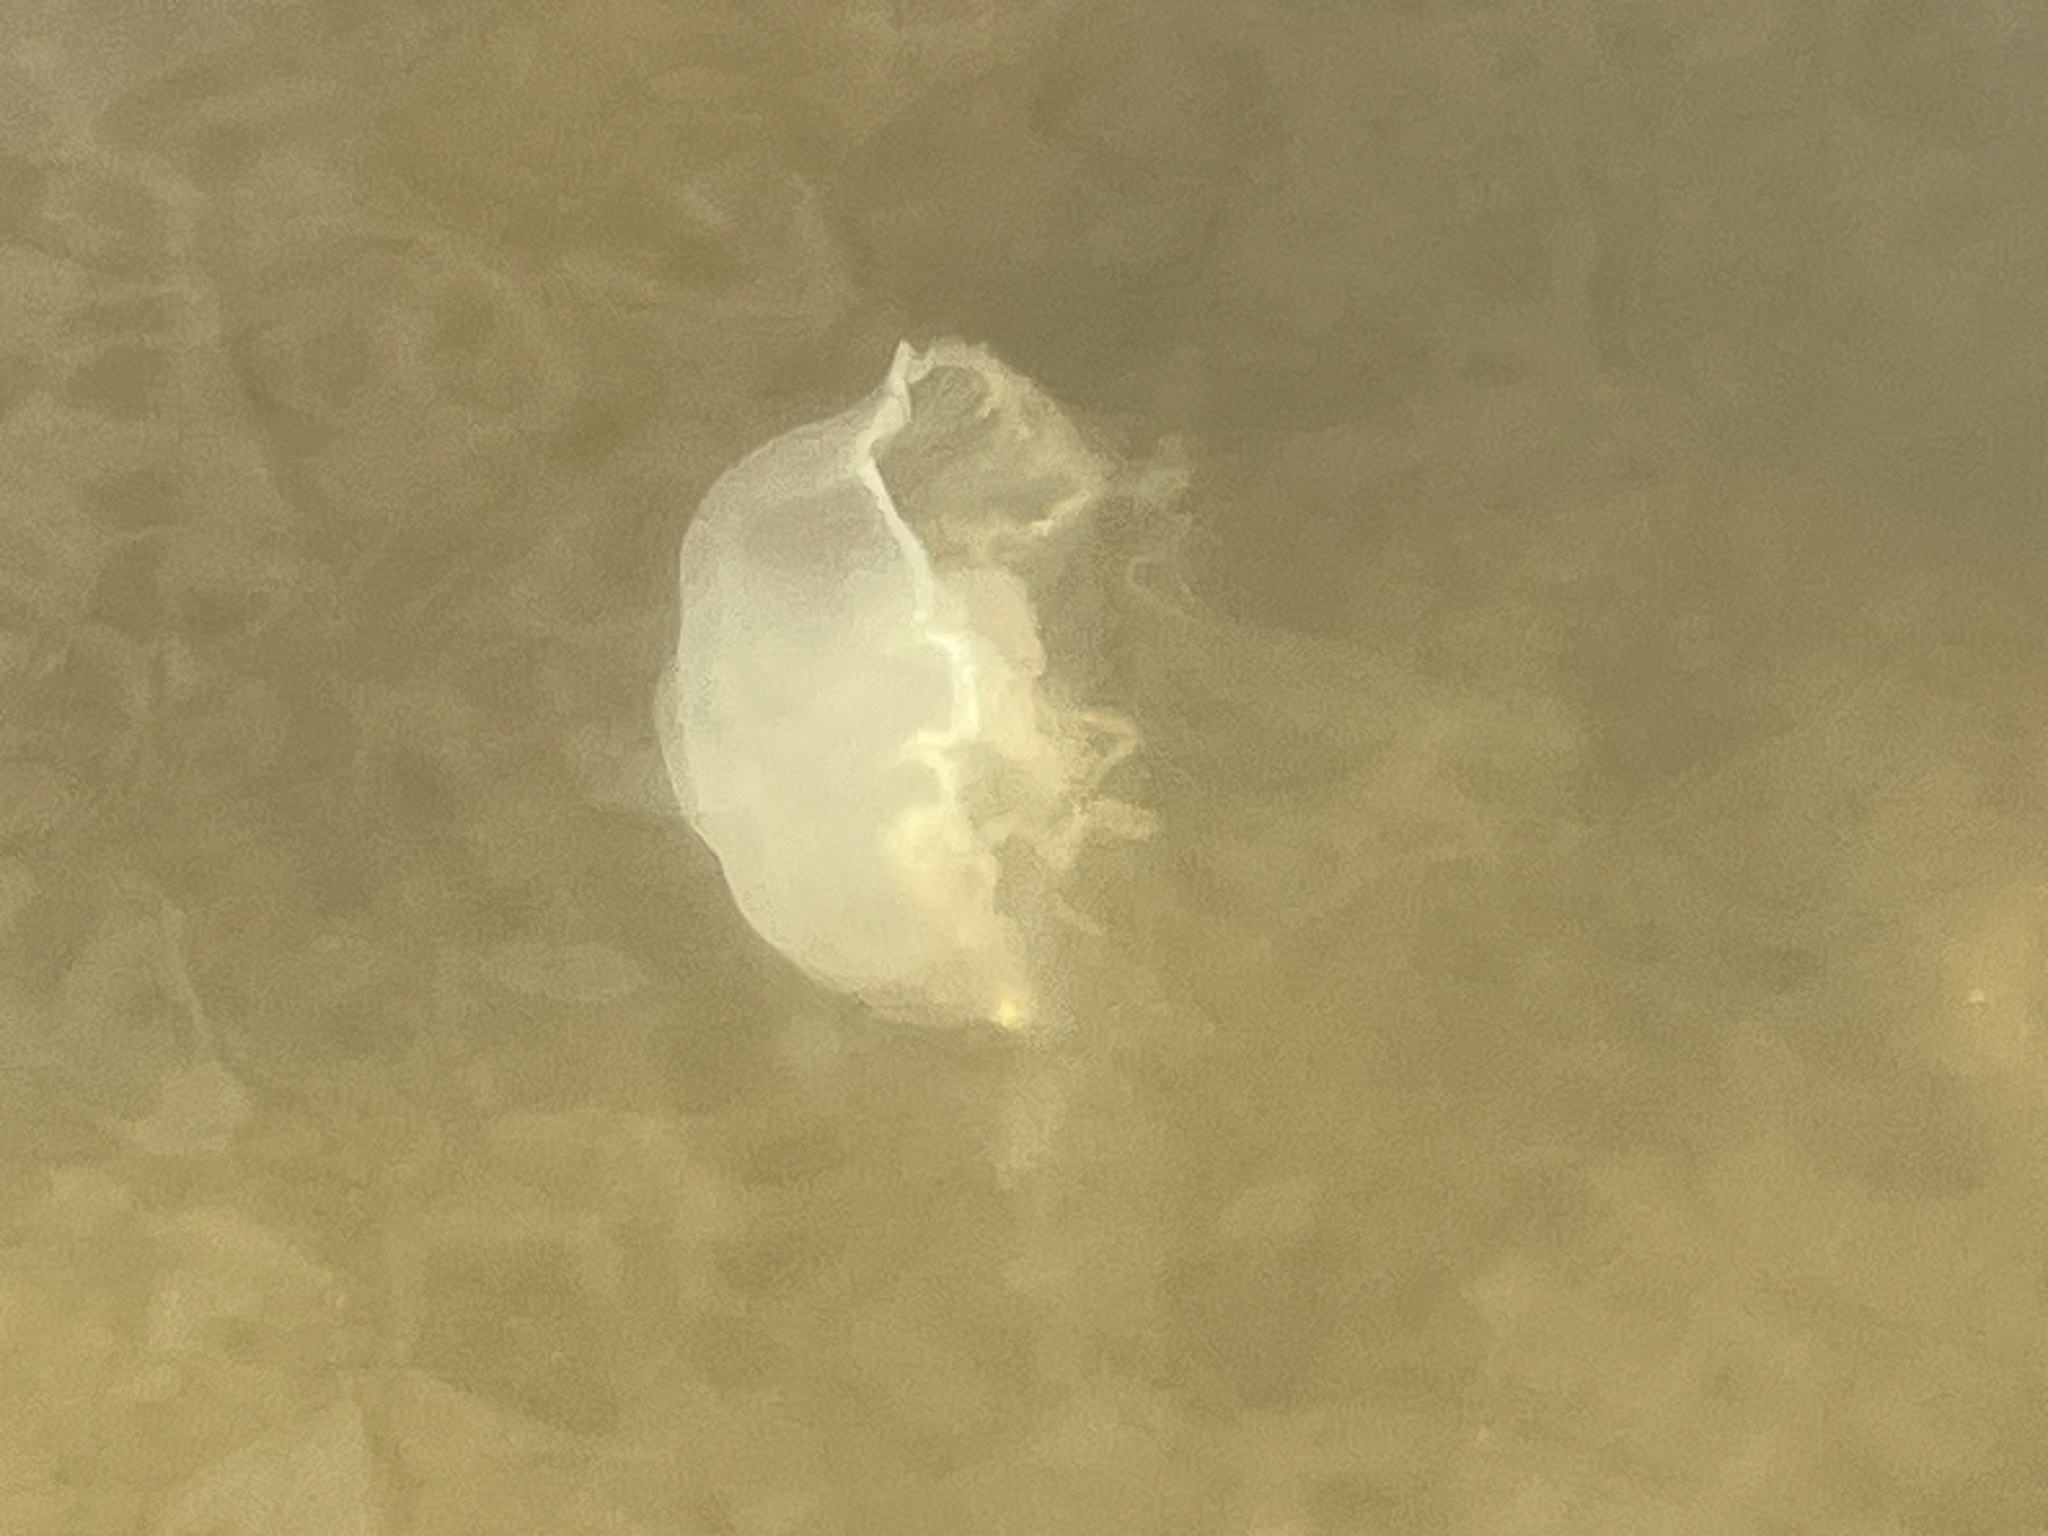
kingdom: Animalia
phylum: Cnidaria
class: Scyphozoa
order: Semaeostomeae
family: Ulmaridae
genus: Aurelia
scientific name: Aurelia marginalis
